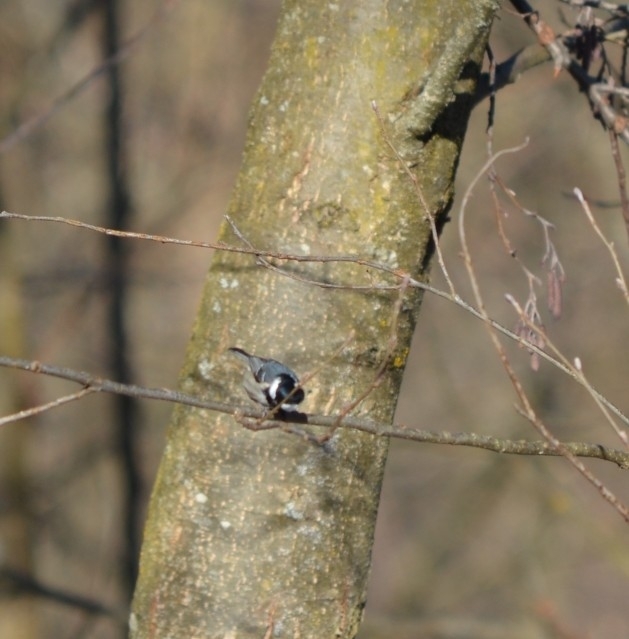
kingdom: Animalia
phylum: Chordata
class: Aves
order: Passeriformes
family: Paridae
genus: Periparus
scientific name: Periparus ater
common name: Coal tit
